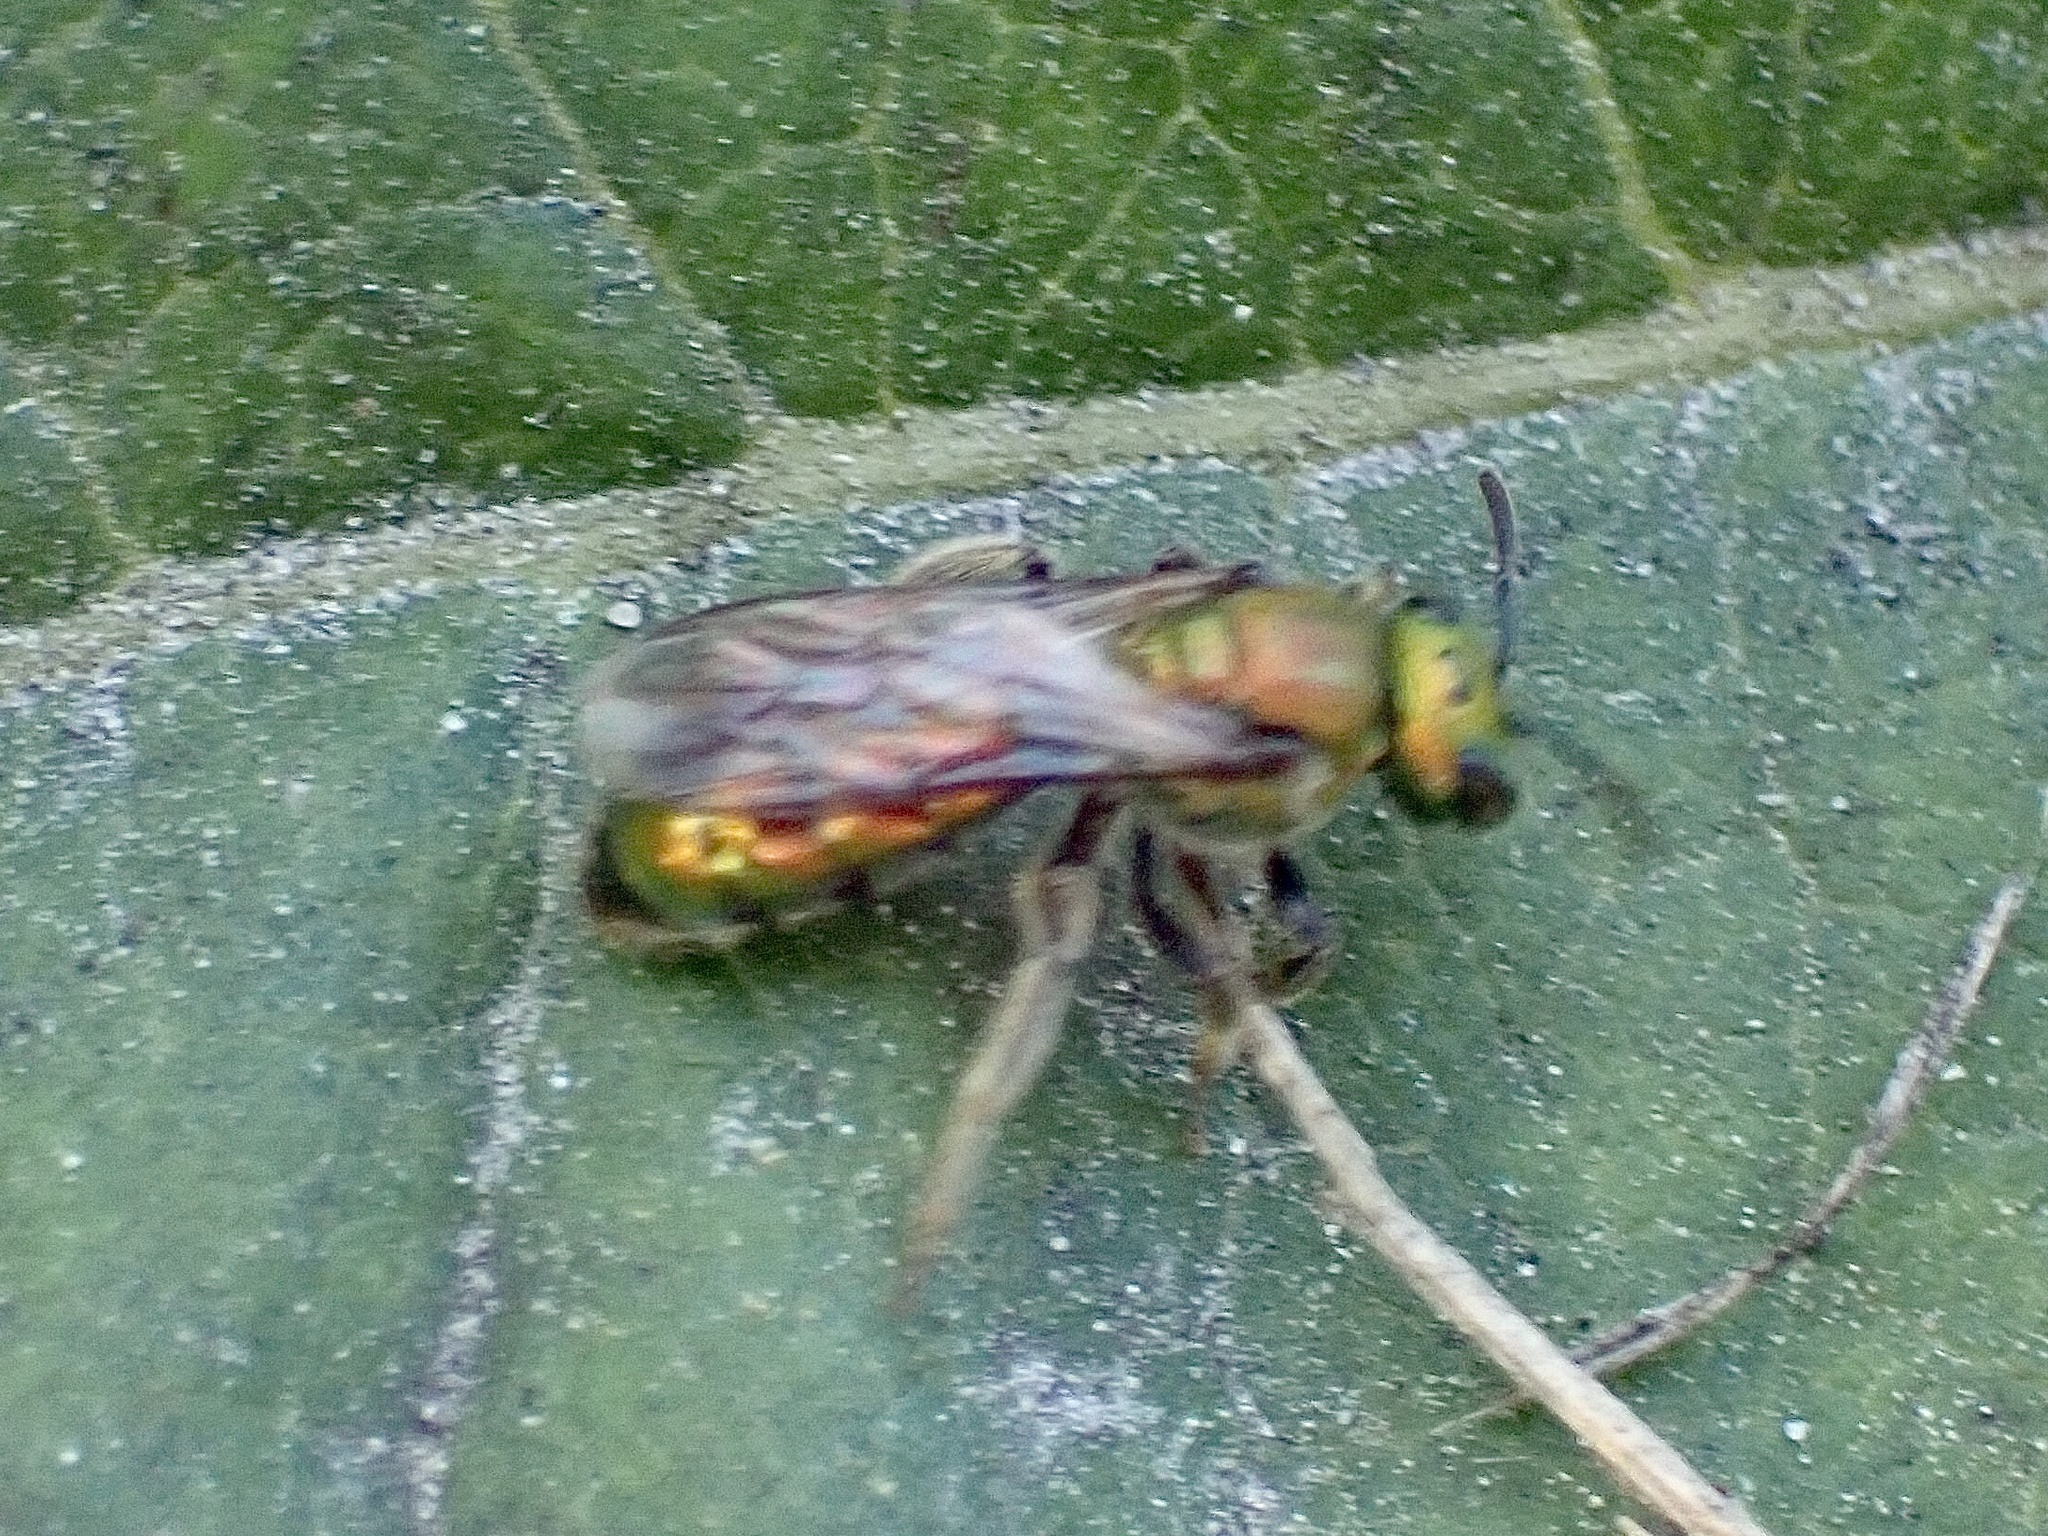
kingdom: Animalia
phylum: Arthropoda
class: Insecta
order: Hymenoptera
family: Halictidae
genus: Augochlora
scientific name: Augochlora pura
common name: Pure green sweat bee
